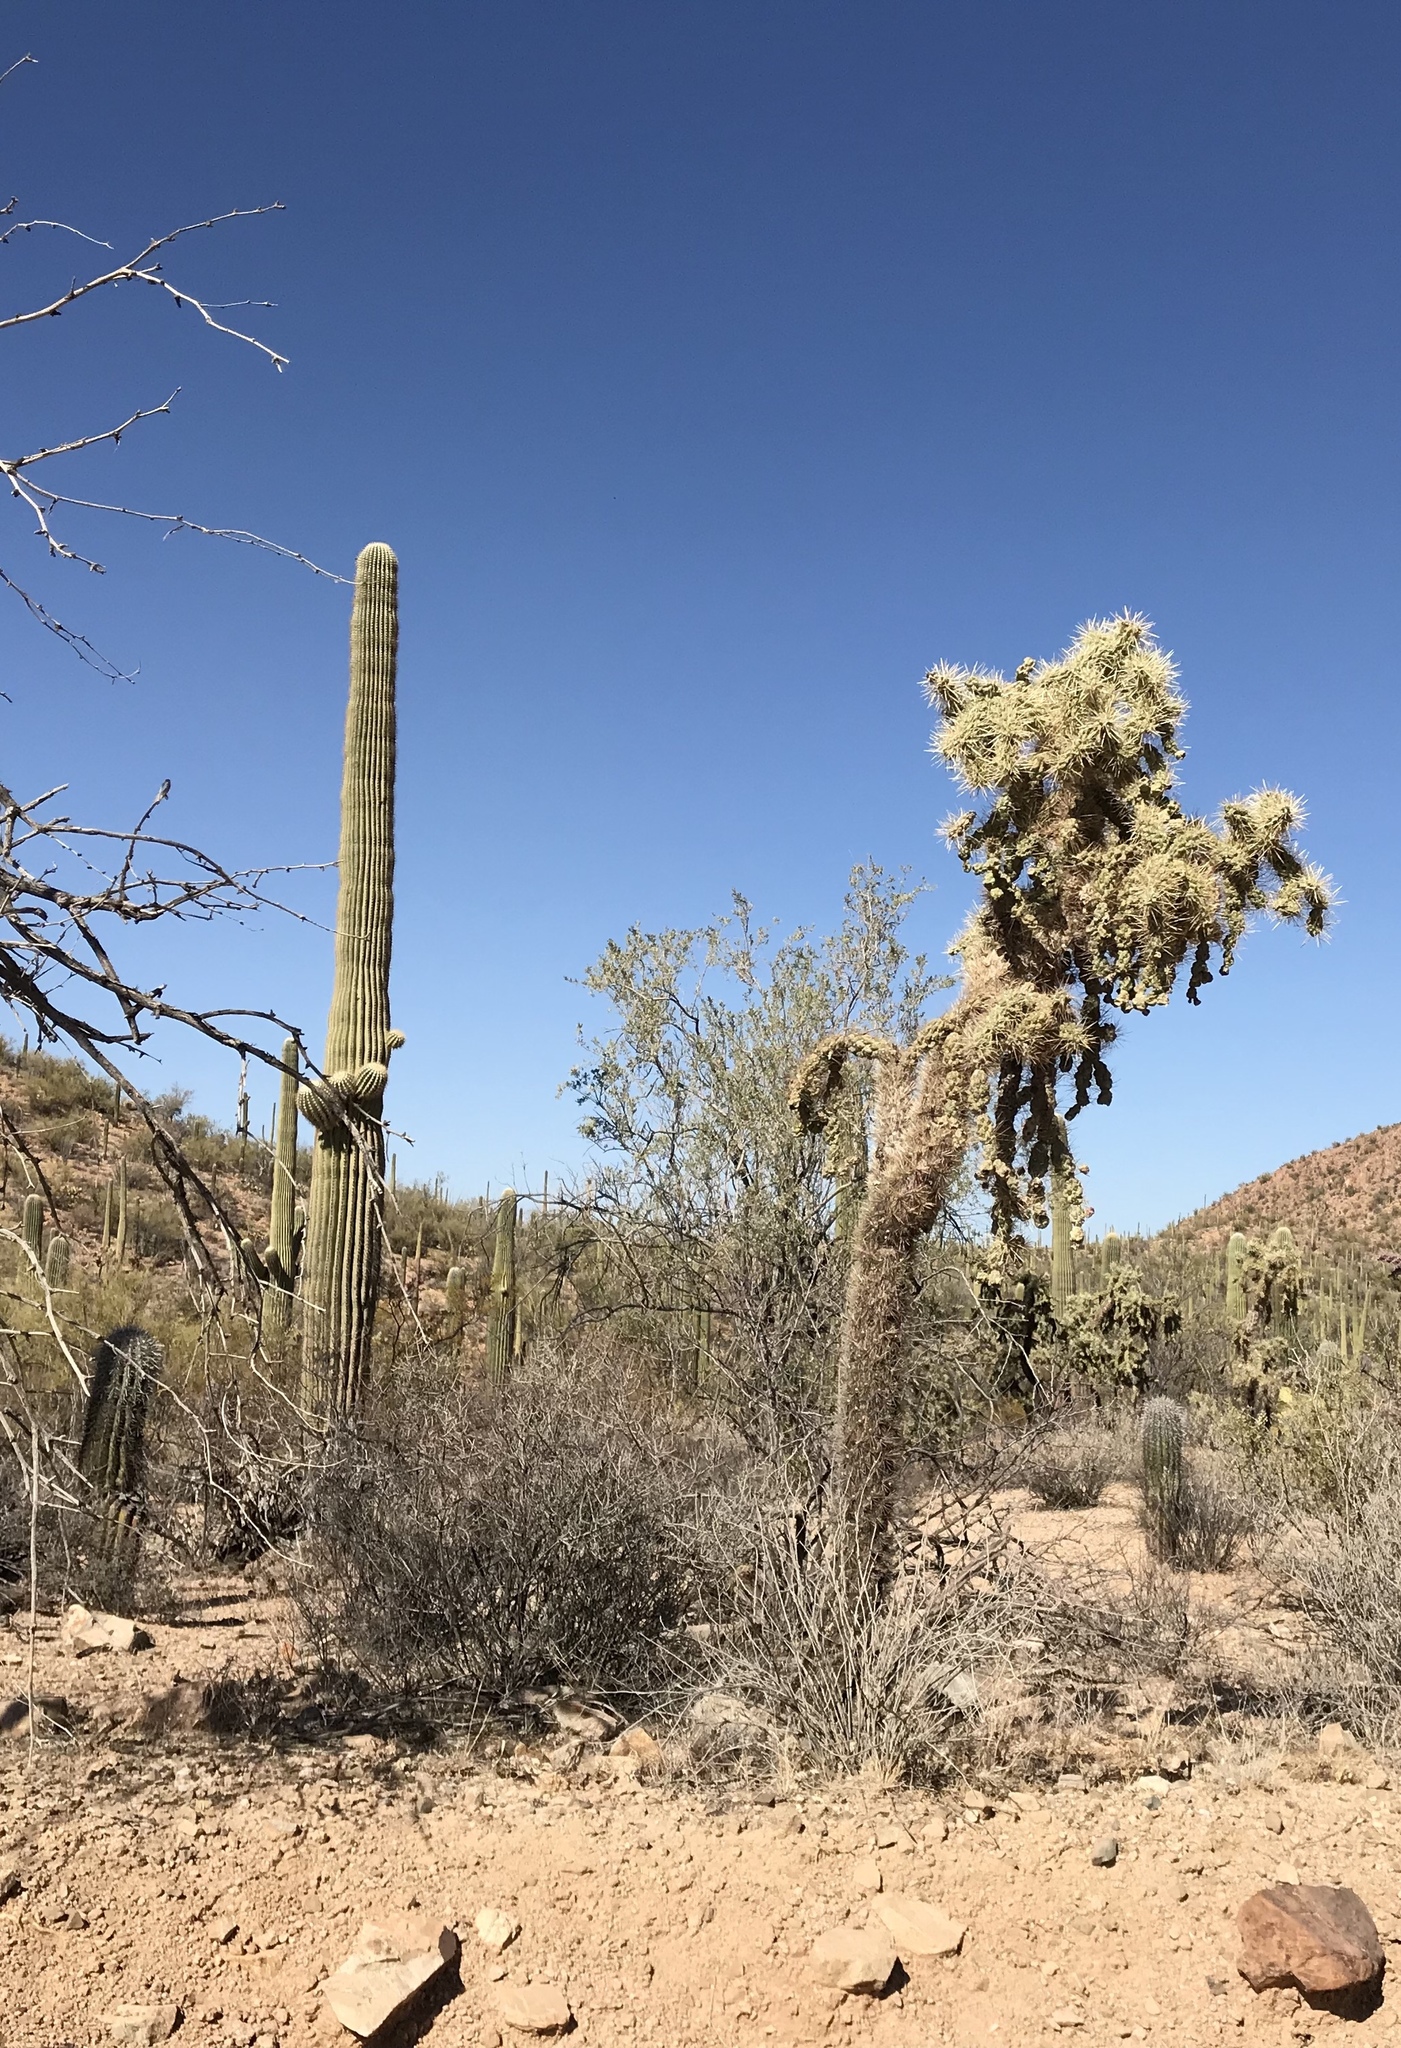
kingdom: Plantae
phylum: Tracheophyta
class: Magnoliopsida
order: Caryophyllales
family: Cactaceae
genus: Cylindropuntia
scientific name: Cylindropuntia fulgida
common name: Jumping cholla
